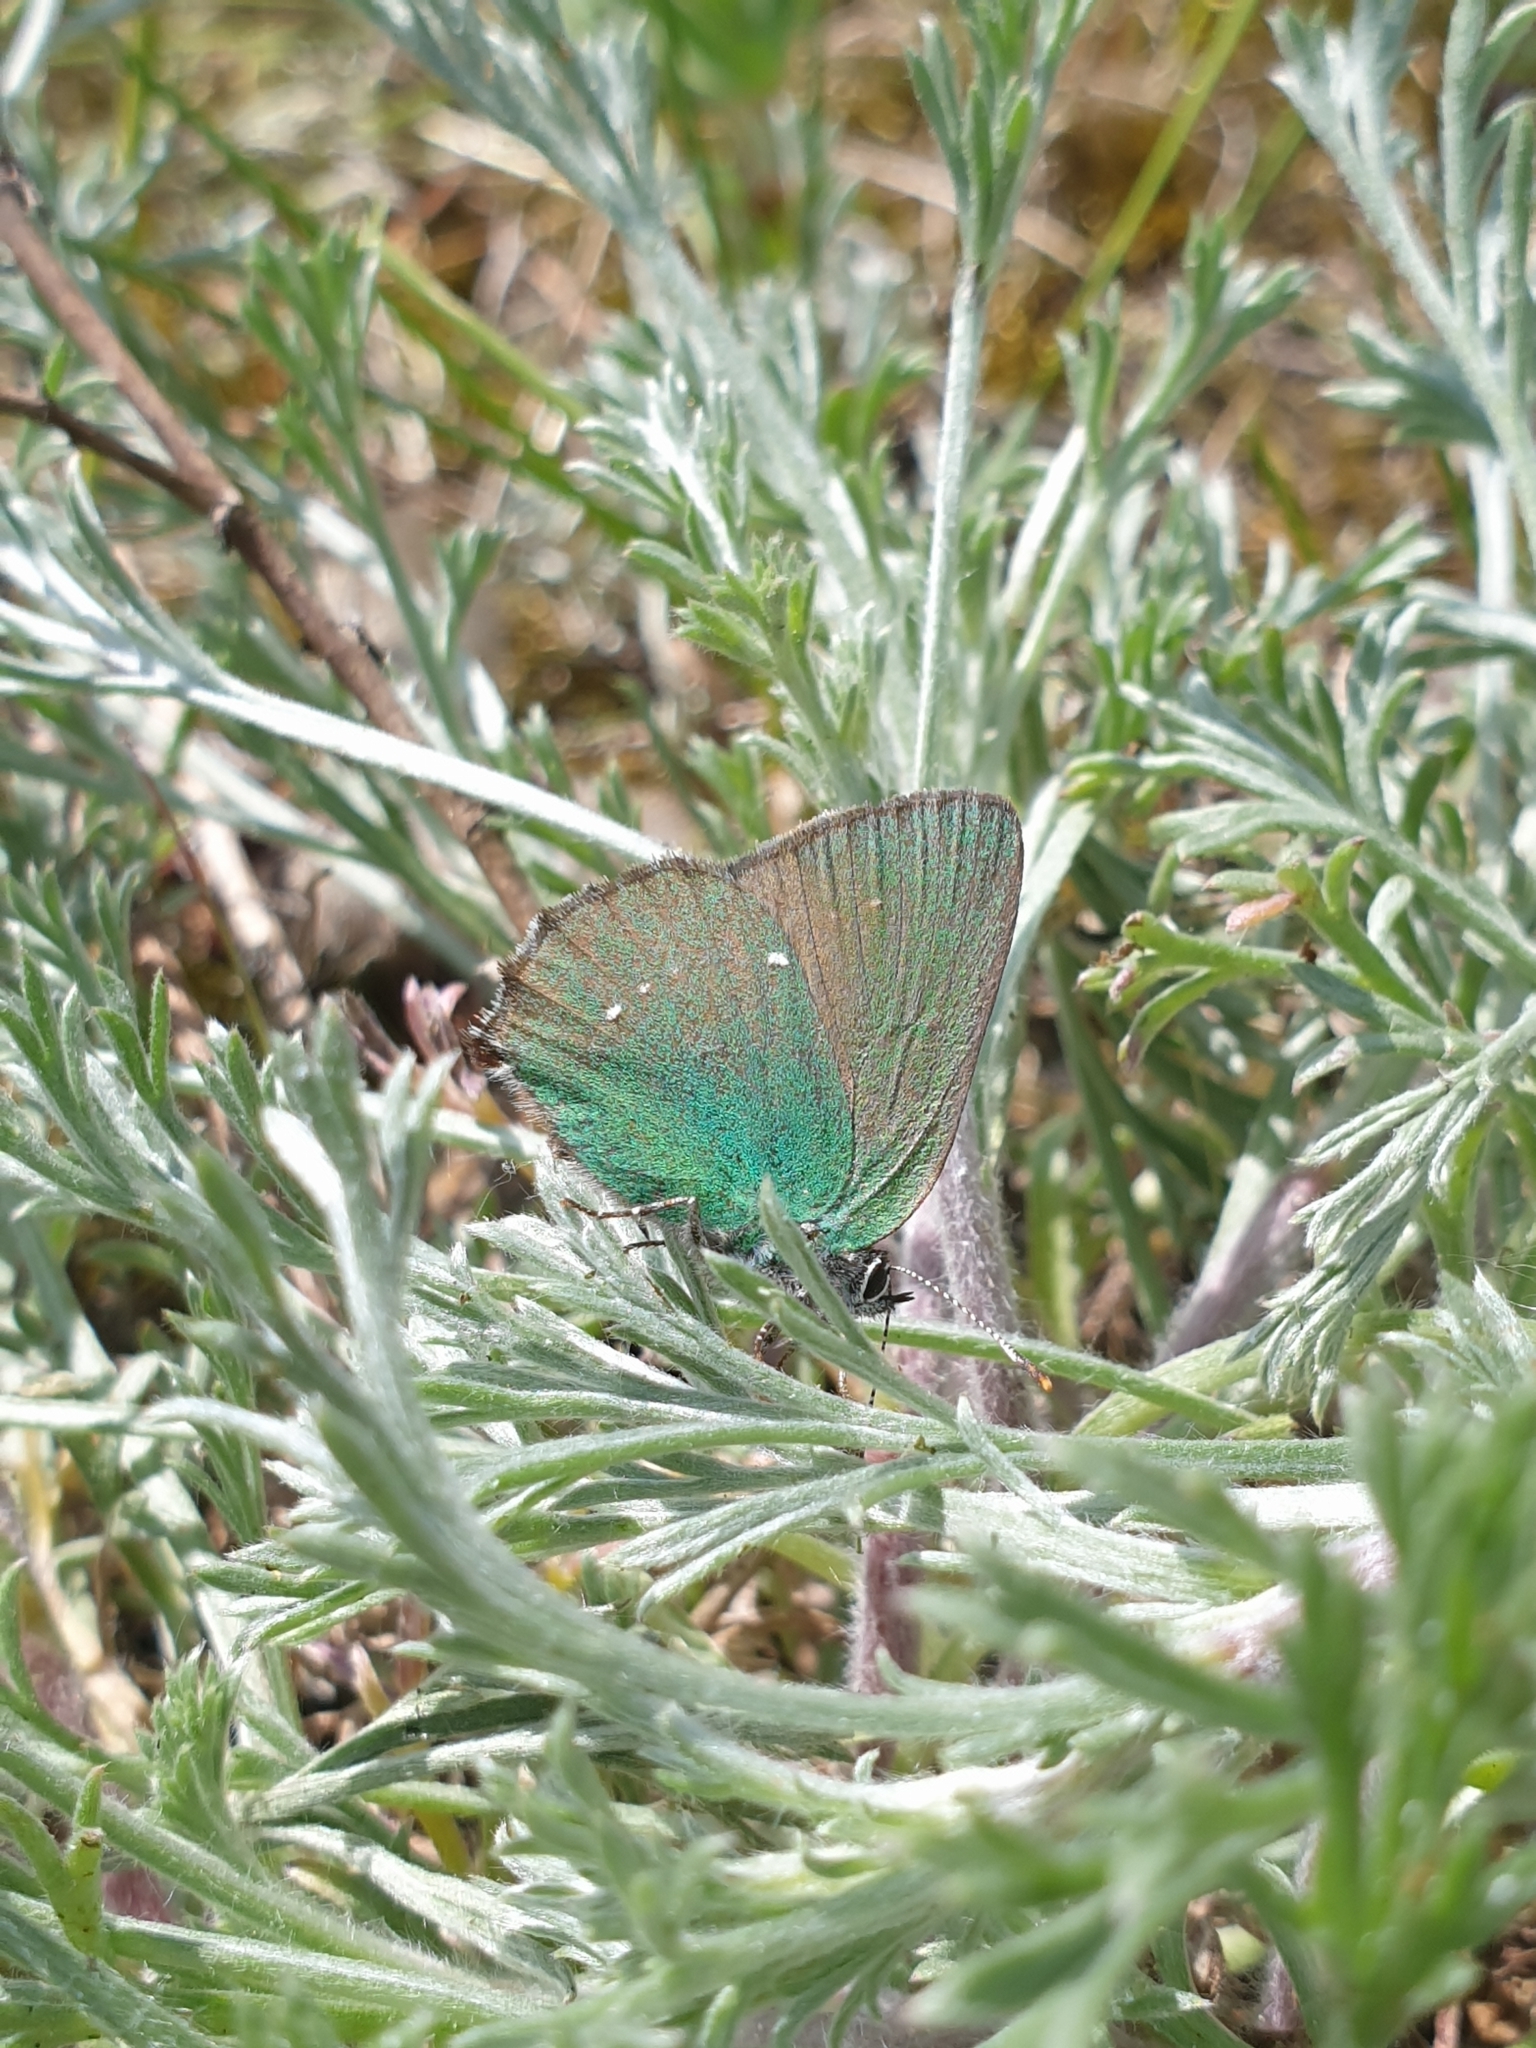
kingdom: Animalia
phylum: Arthropoda
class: Insecta
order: Lepidoptera
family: Lycaenidae
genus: Callophrys
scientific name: Callophrys rubi
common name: Green hairstreak
